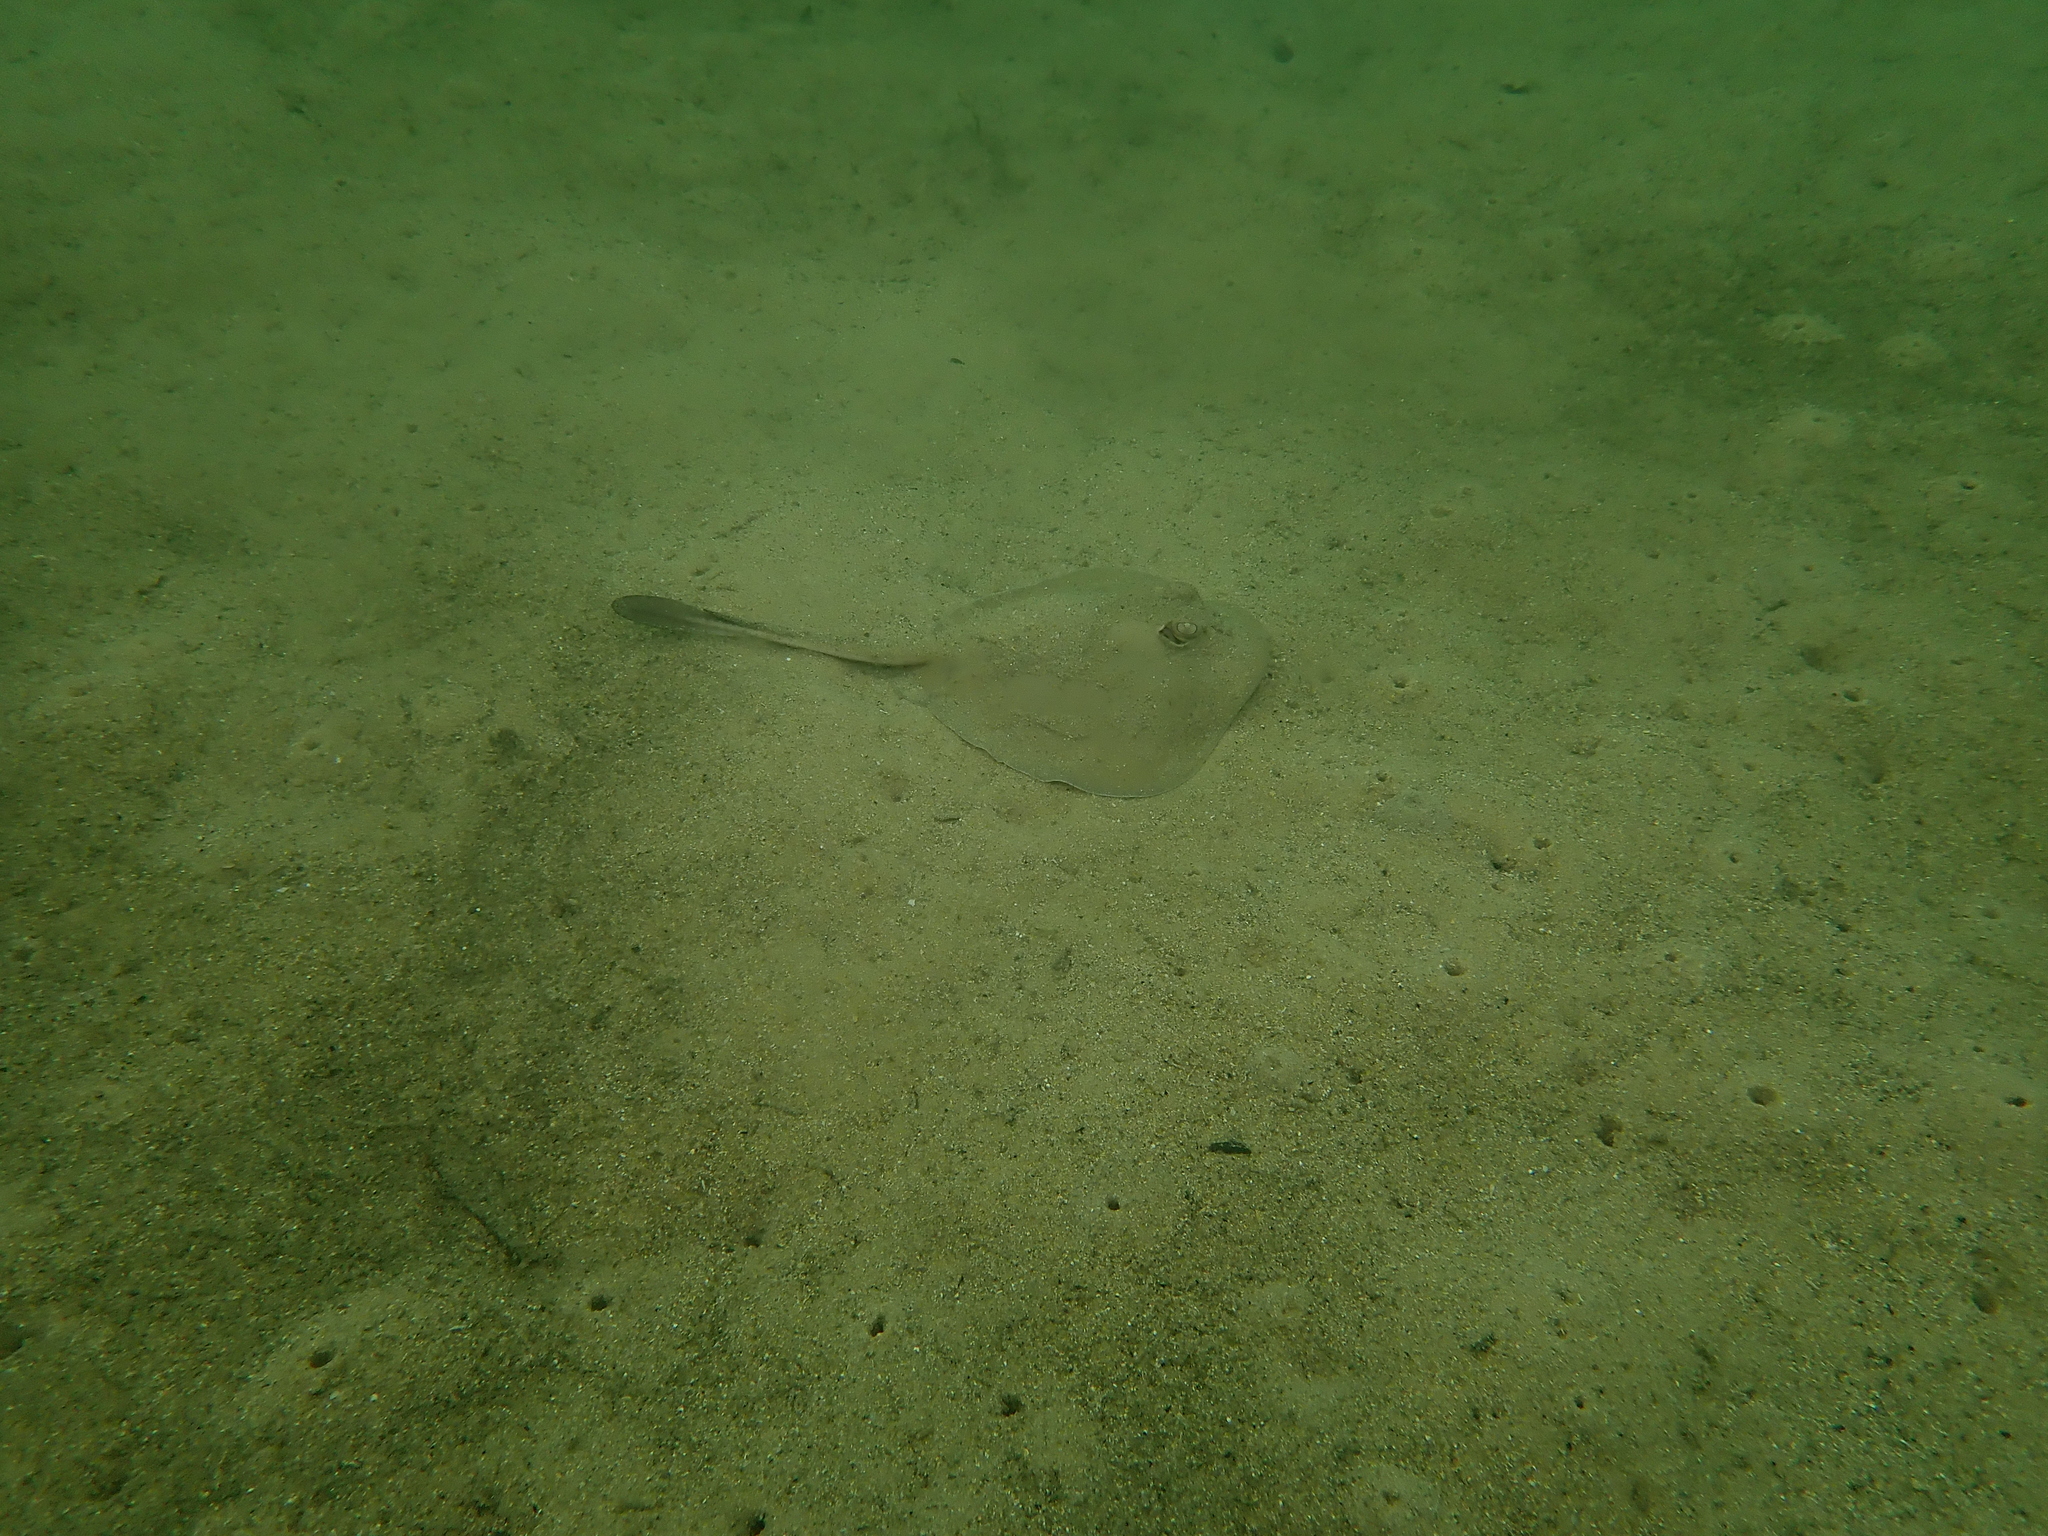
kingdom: Animalia
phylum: Chordata
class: Elasmobranchii
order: Myliobatiformes
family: Urolophidae
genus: Trygonoptera
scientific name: Trygonoptera testacea
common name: Common stingaree
